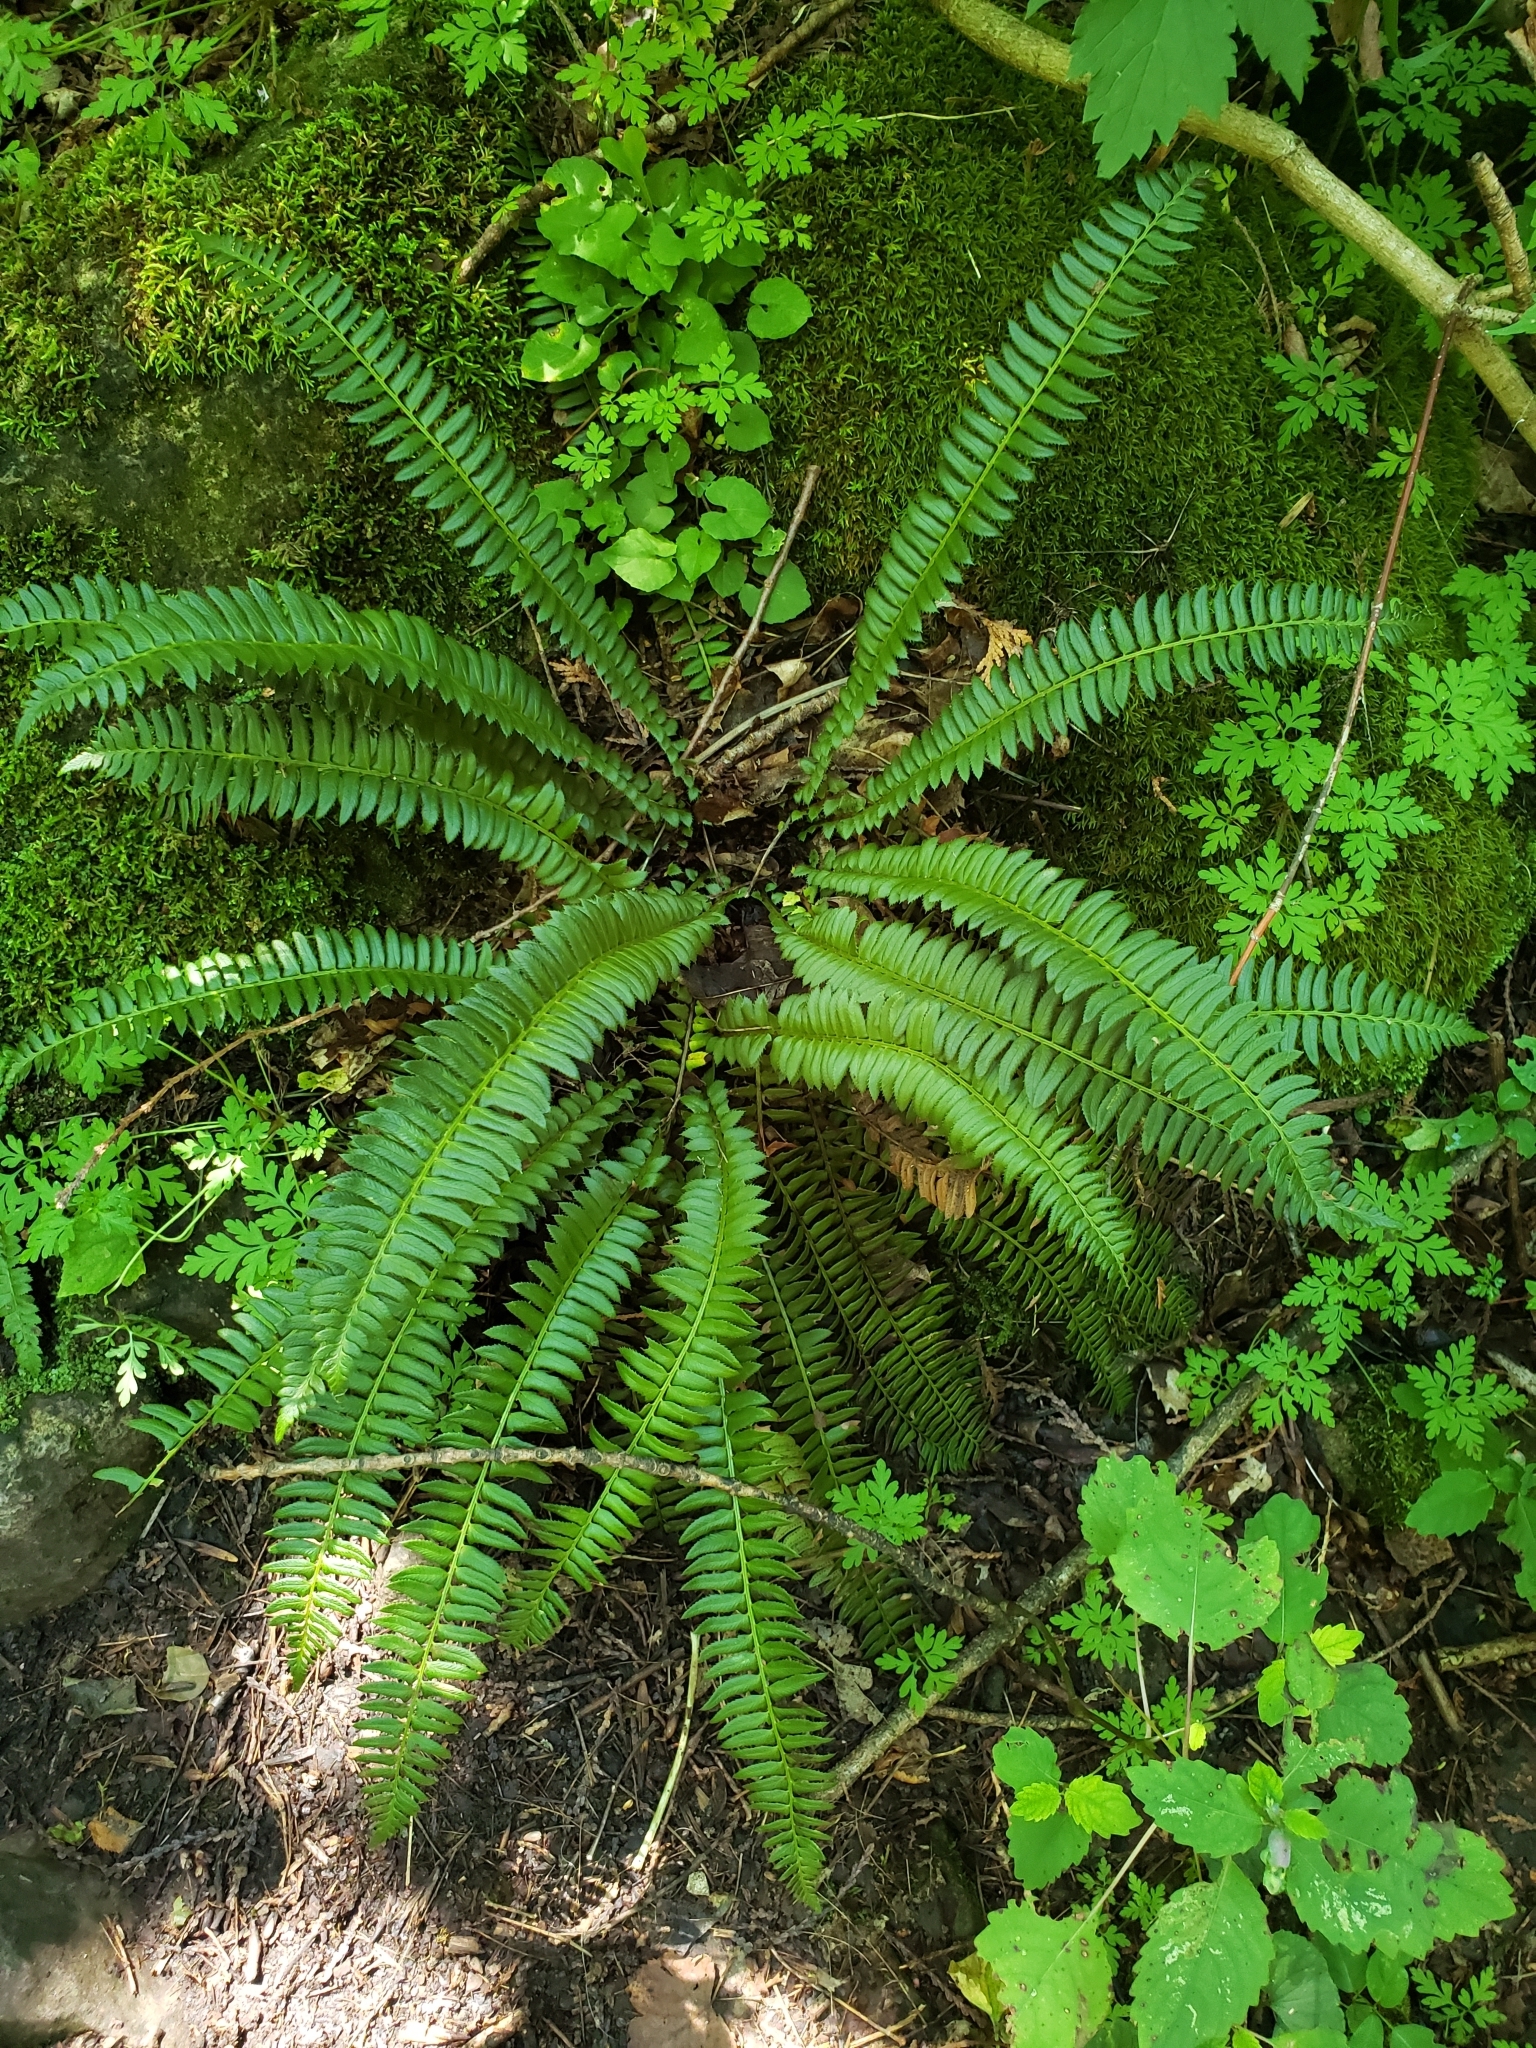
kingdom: Plantae
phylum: Tracheophyta
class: Polypodiopsida
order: Polypodiales
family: Dryopteridaceae
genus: Polystichum
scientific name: Polystichum lonchitis
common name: Holly fern
